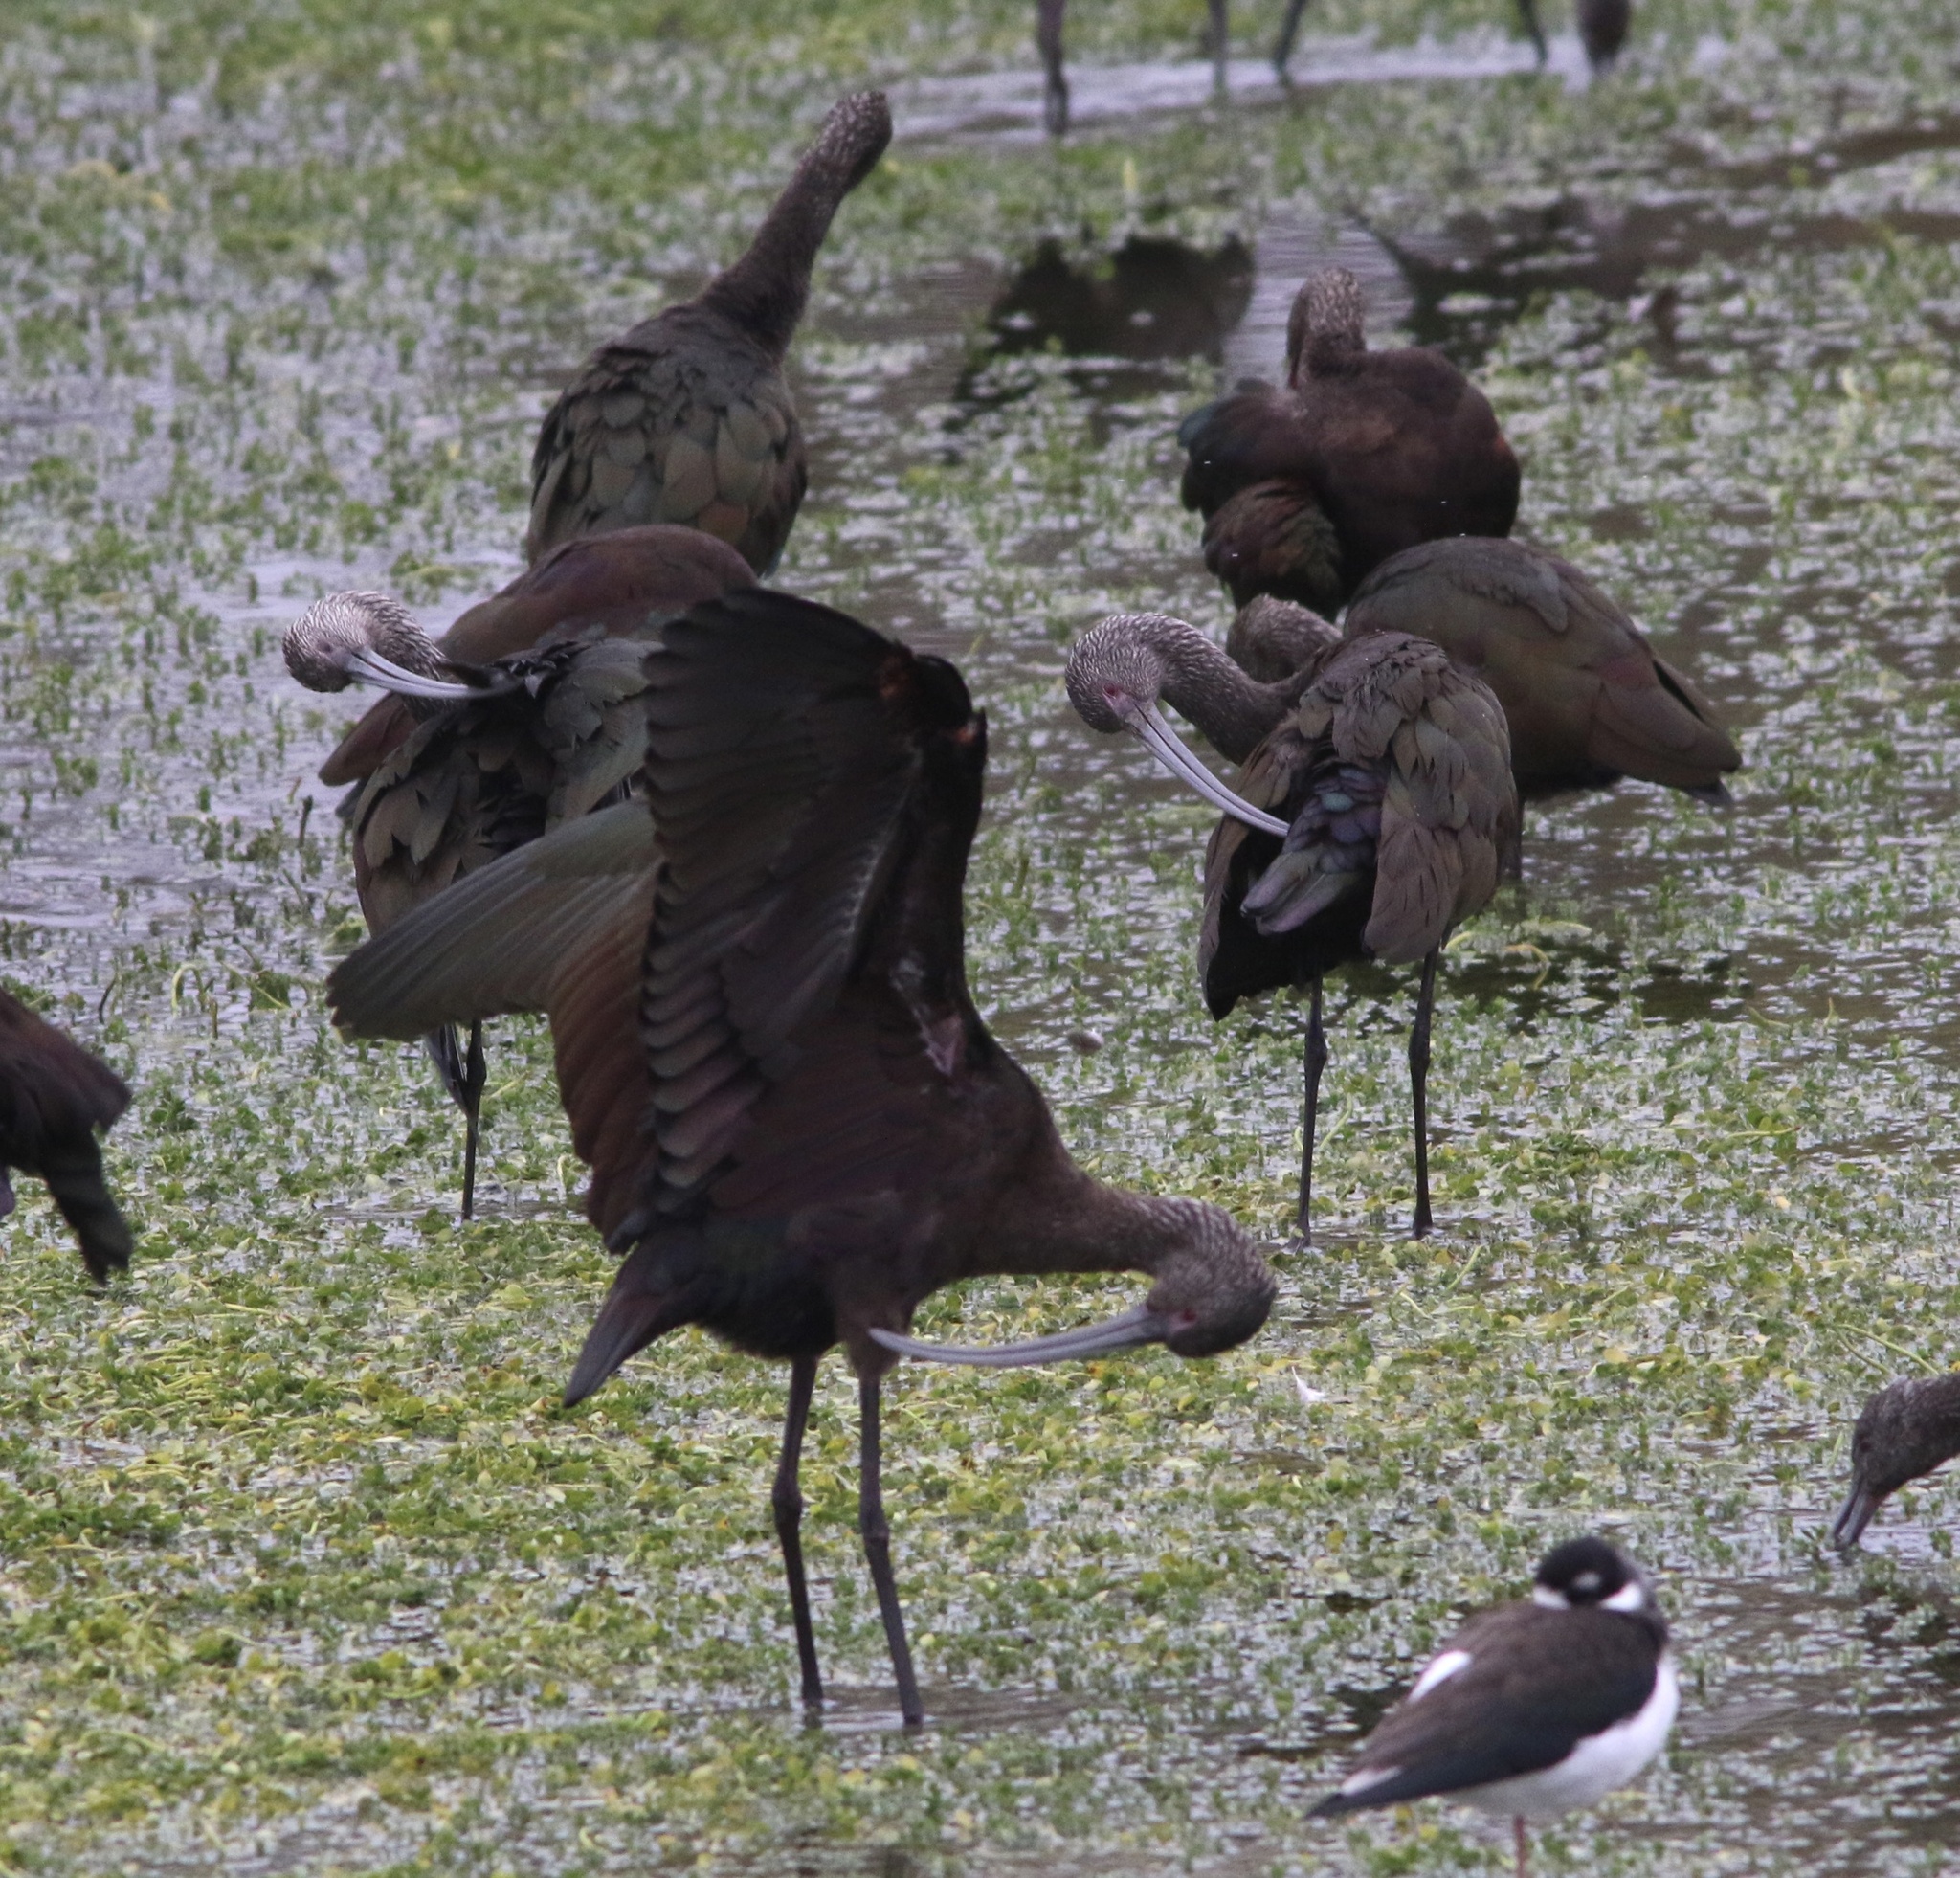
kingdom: Animalia
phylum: Chordata
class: Aves
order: Pelecaniformes
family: Threskiornithidae
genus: Plegadis
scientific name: Plegadis chihi
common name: White-faced ibis
